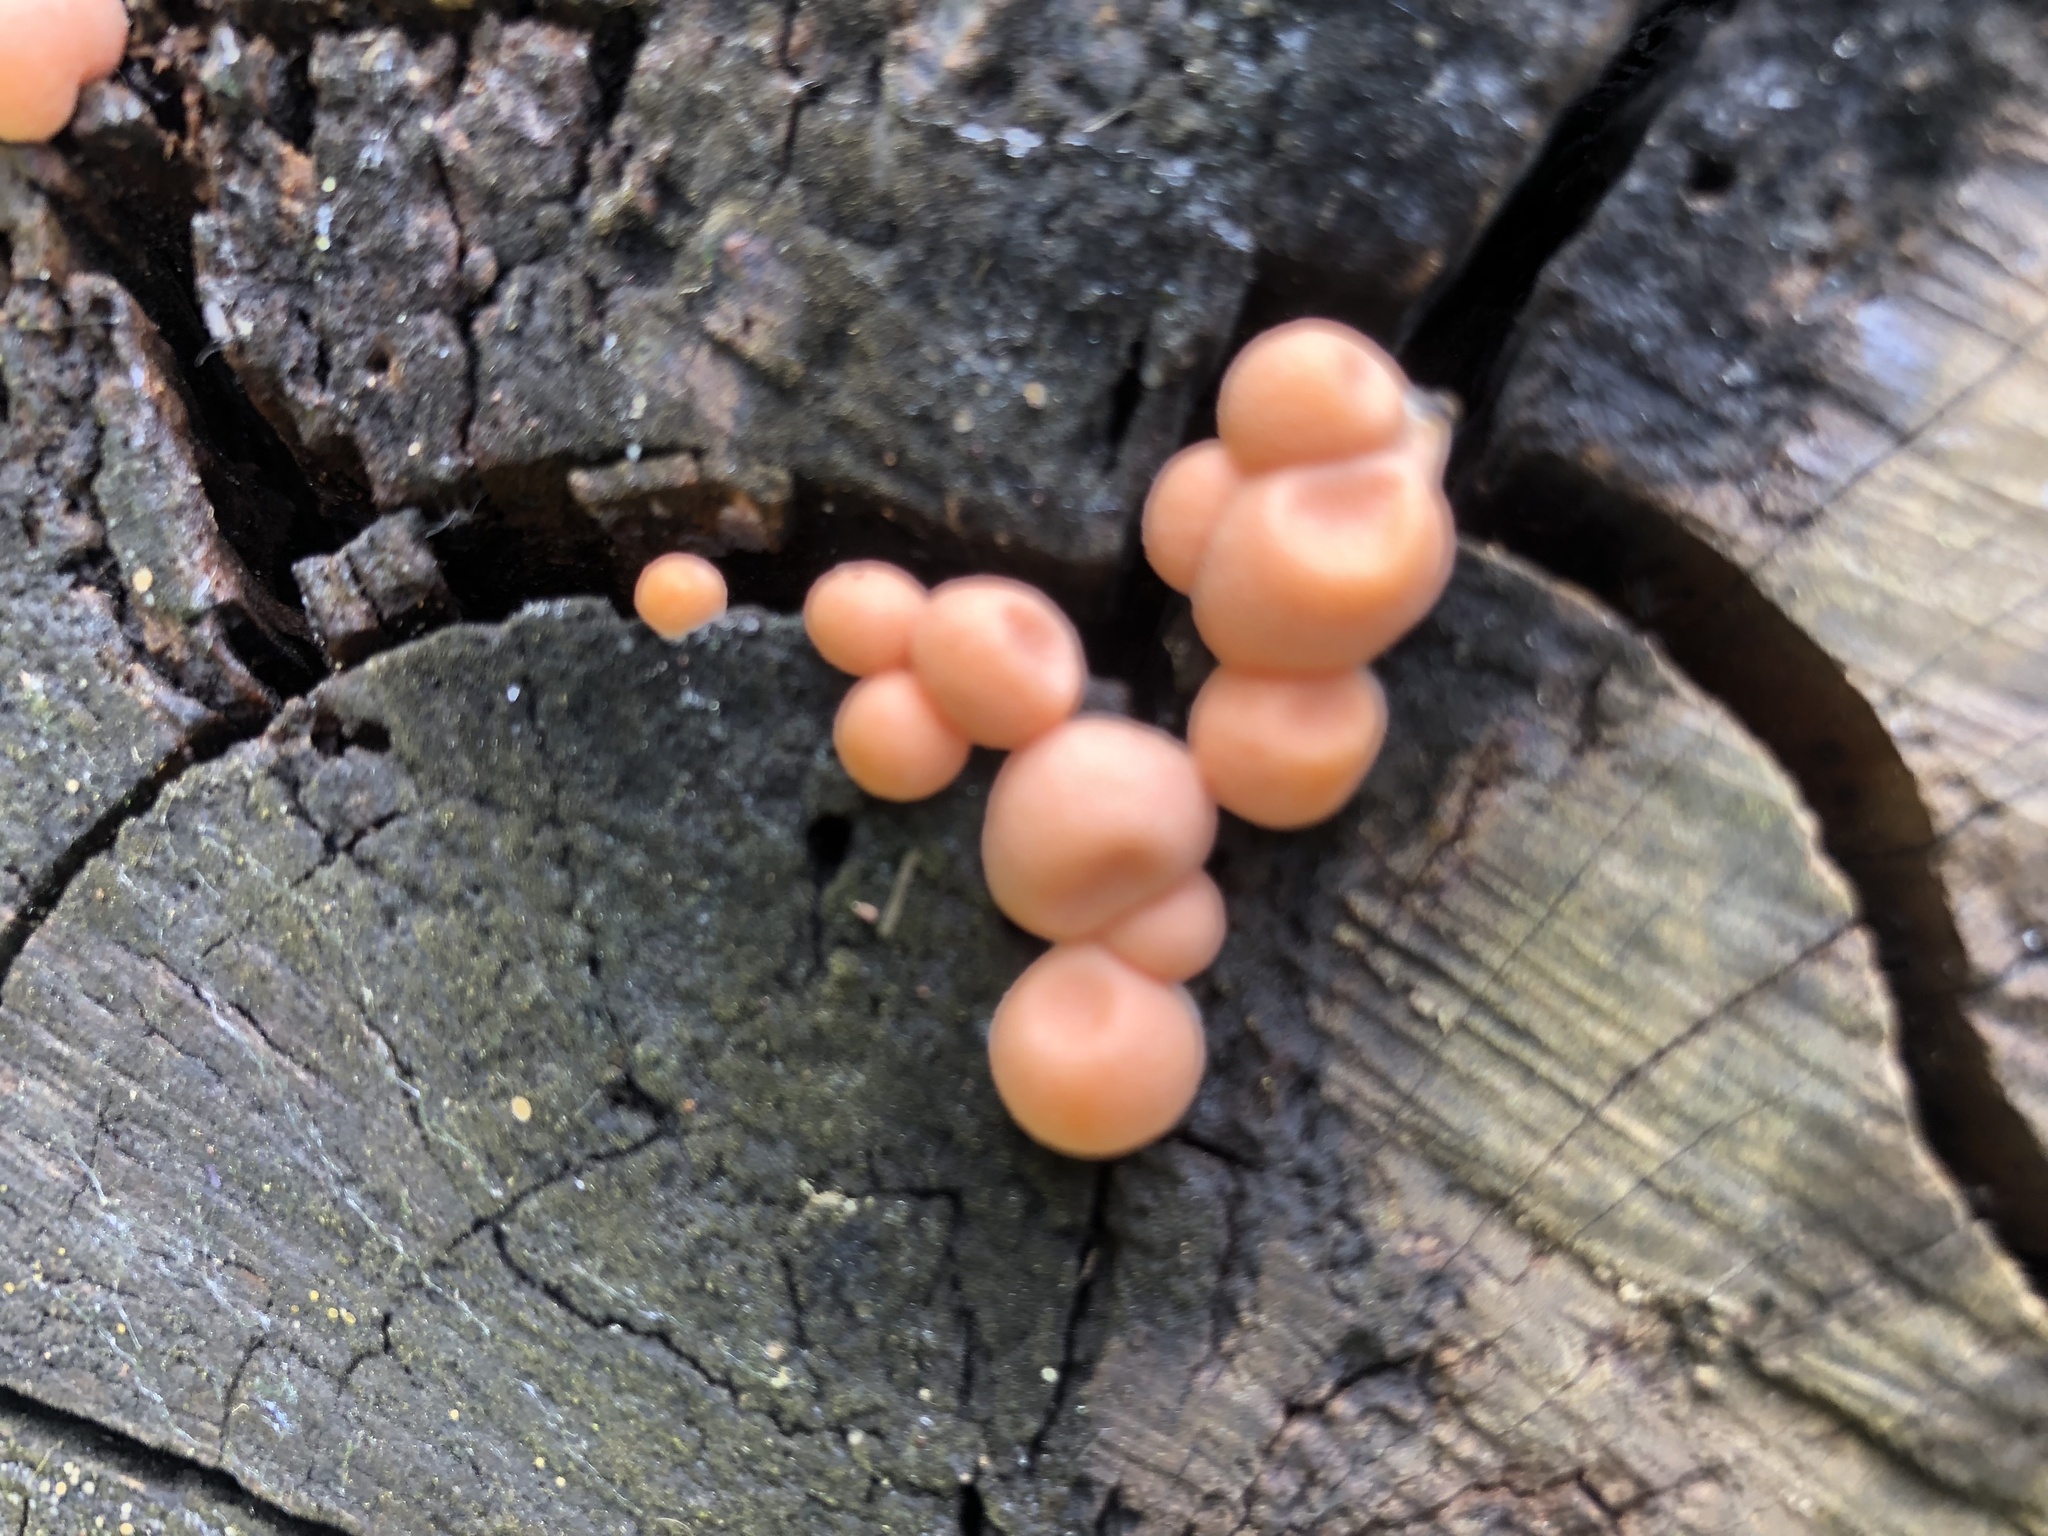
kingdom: Protozoa
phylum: Mycetozoa
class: Myxomycetes
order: Cribrariales
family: Tubiferaceae
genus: Lycogala
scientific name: Lycogala epidendrum
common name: Wolf's milk
